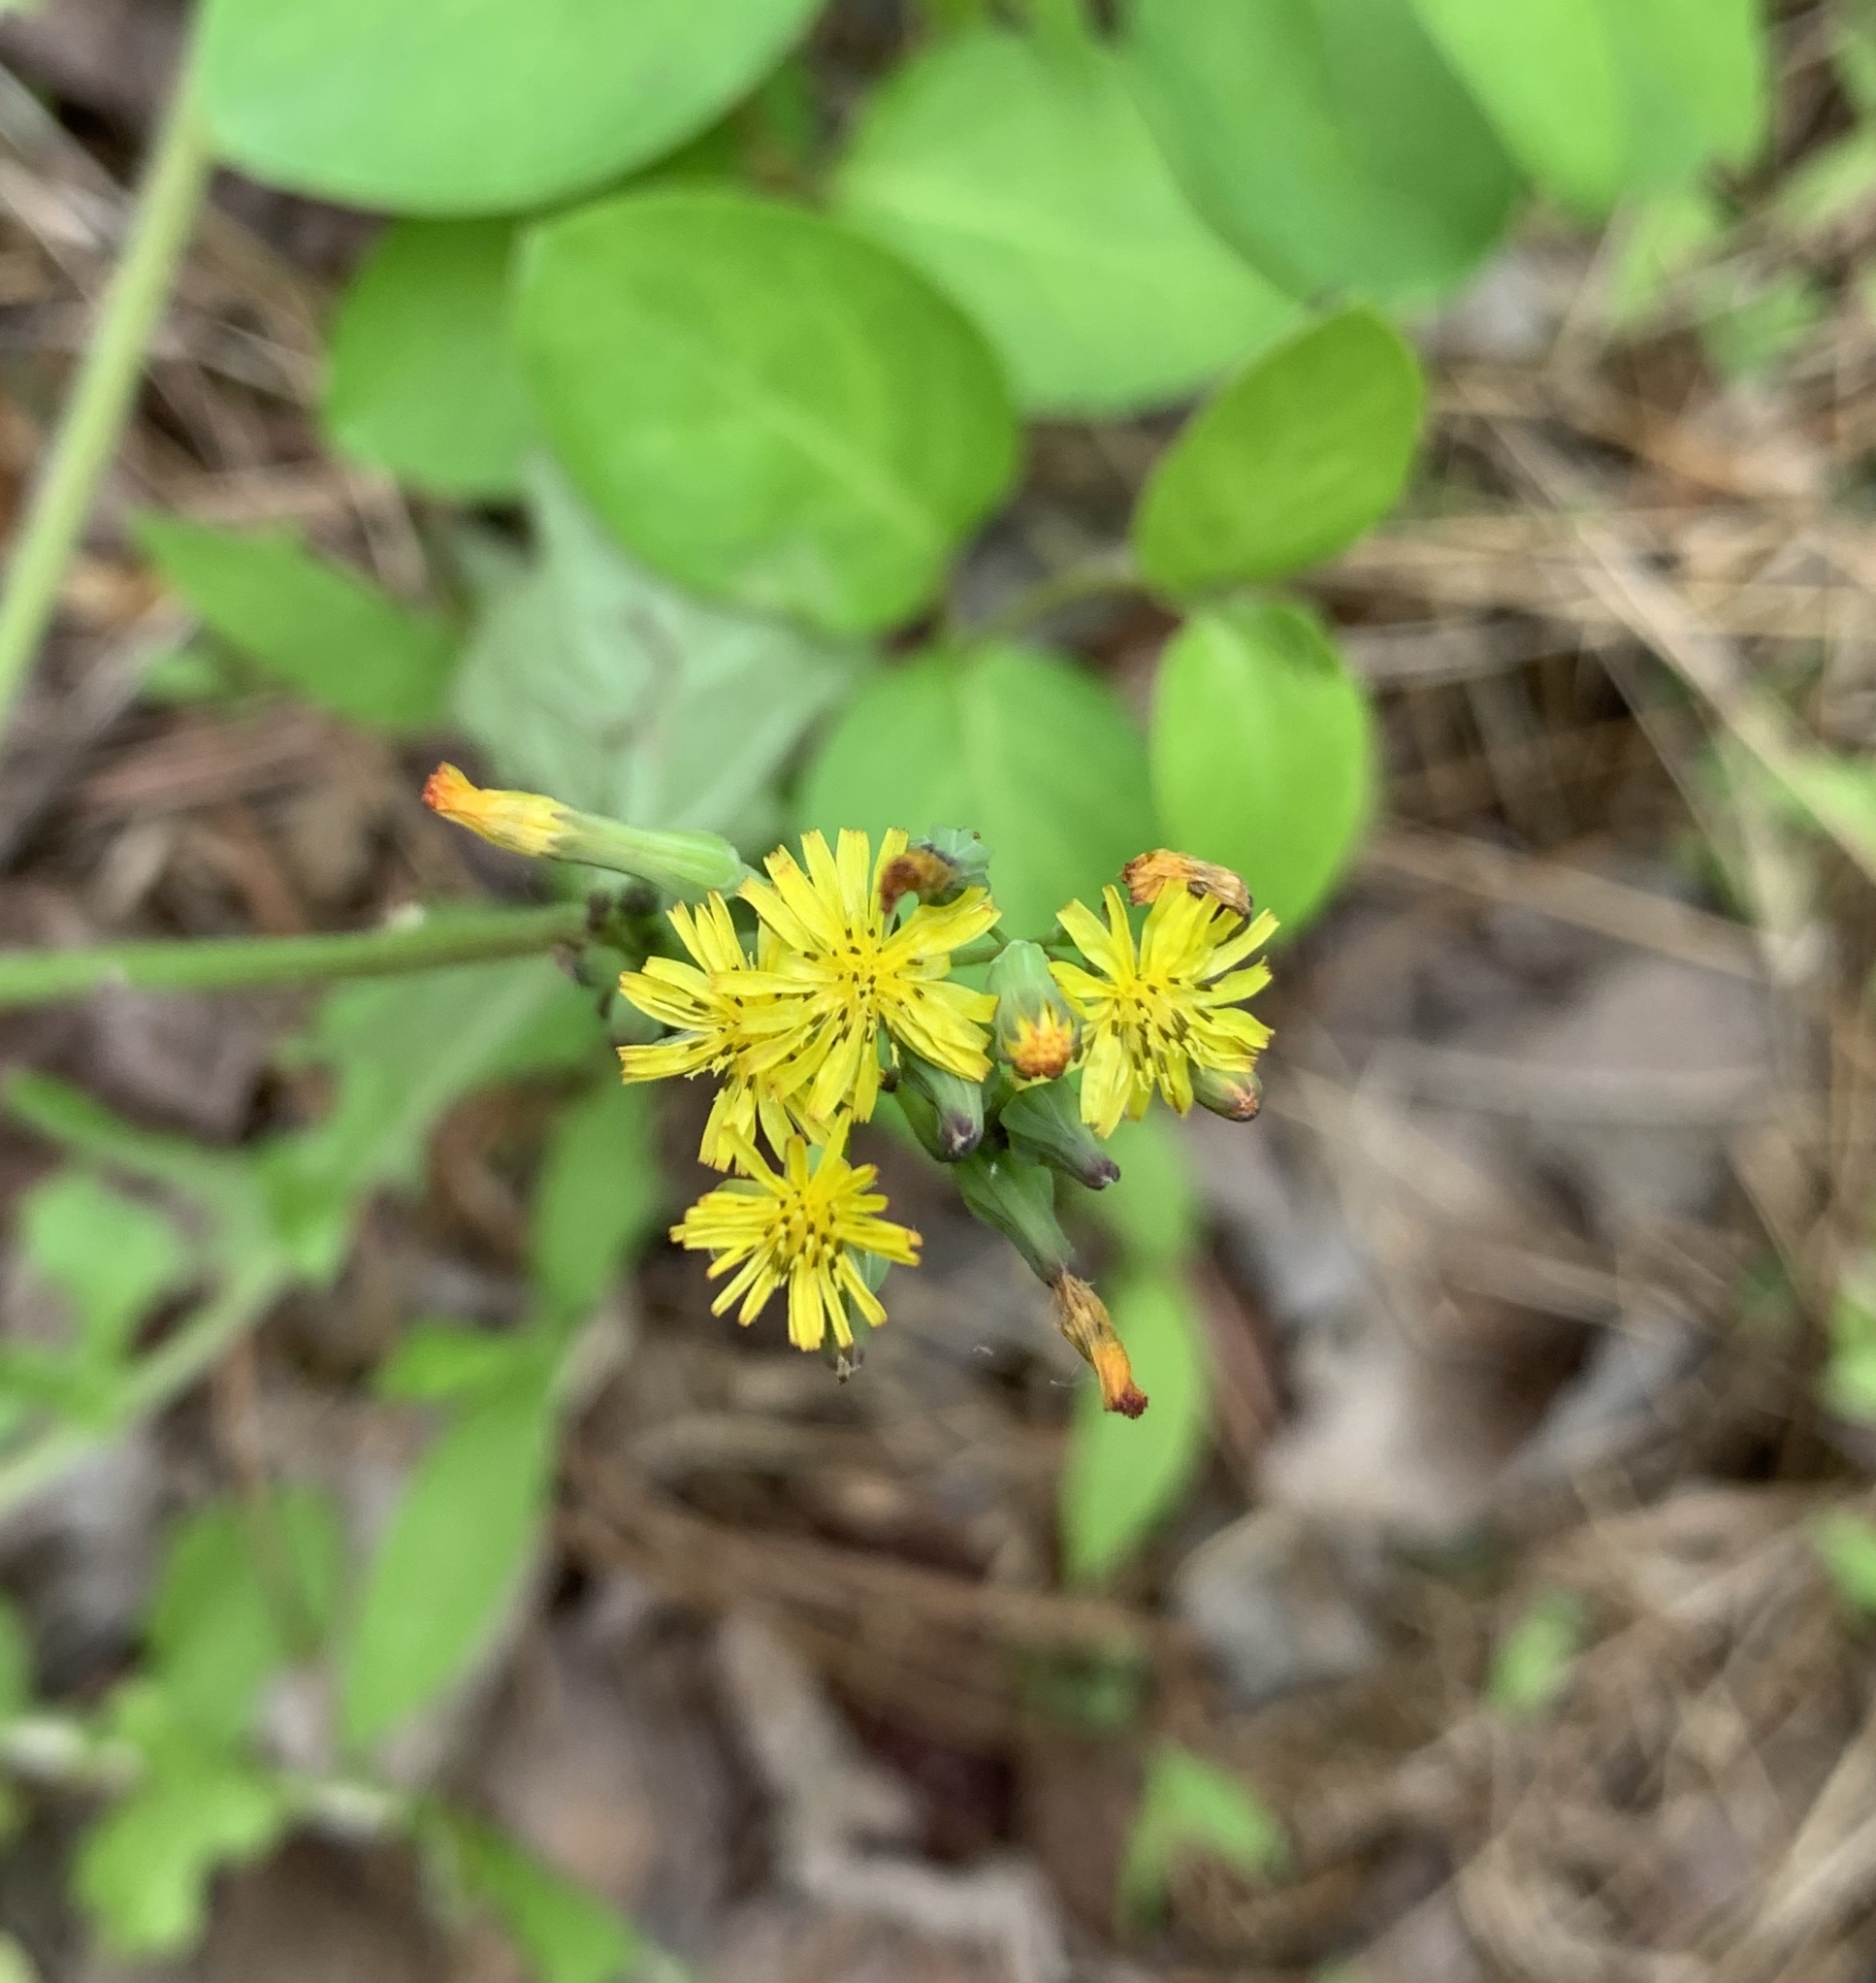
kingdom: Plantae
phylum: Tracheophyta
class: Magnoliopsida
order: Asterales
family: Asteraceae
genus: Youngia
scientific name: Youngia japonica
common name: Oriental false hawksbeard
